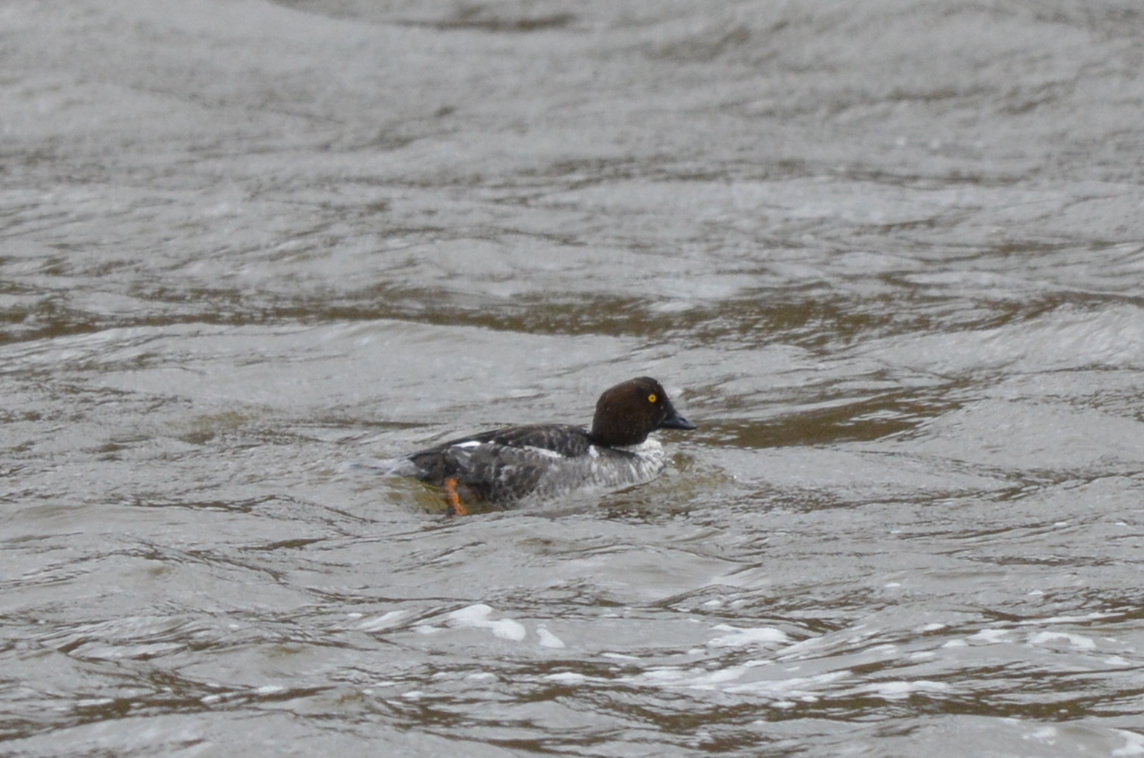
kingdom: Animalia
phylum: Chordata
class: Aves
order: Anseriformes
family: Anatidae
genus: Bucephala
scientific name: Bucephala clangula
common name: Common goldeneye
